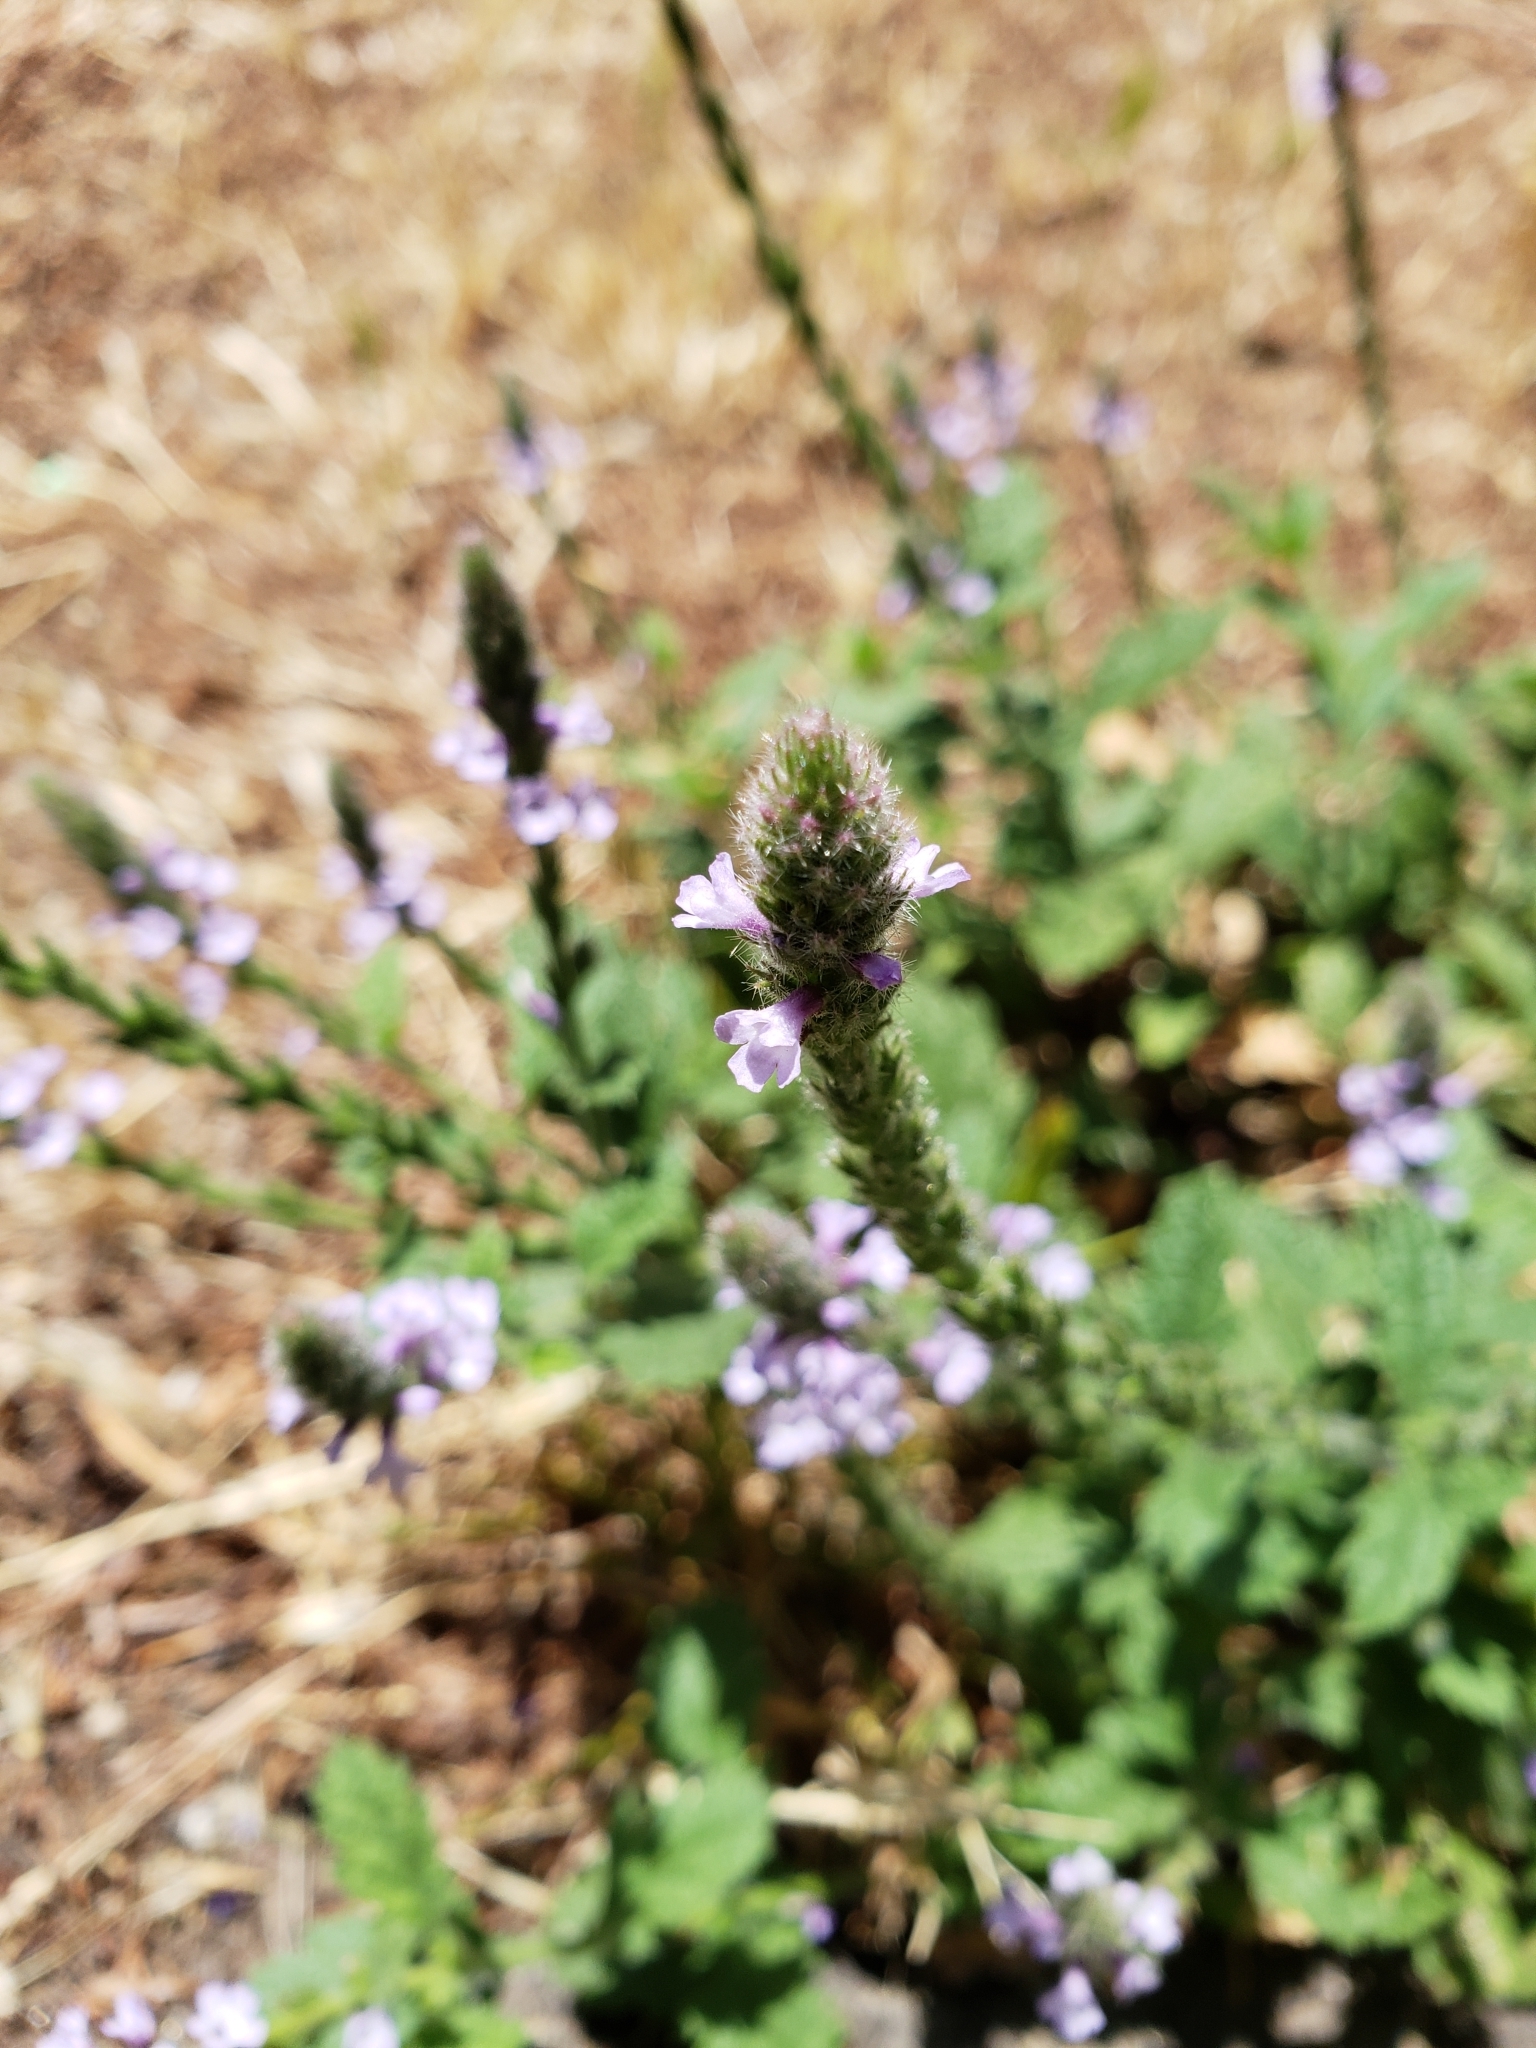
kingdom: Plantae
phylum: Tracheophyta
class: Magnoliopsida
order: Lamiales
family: Verbenaceae
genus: Verbena
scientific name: Verbena lasiostachys
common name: Vervain
